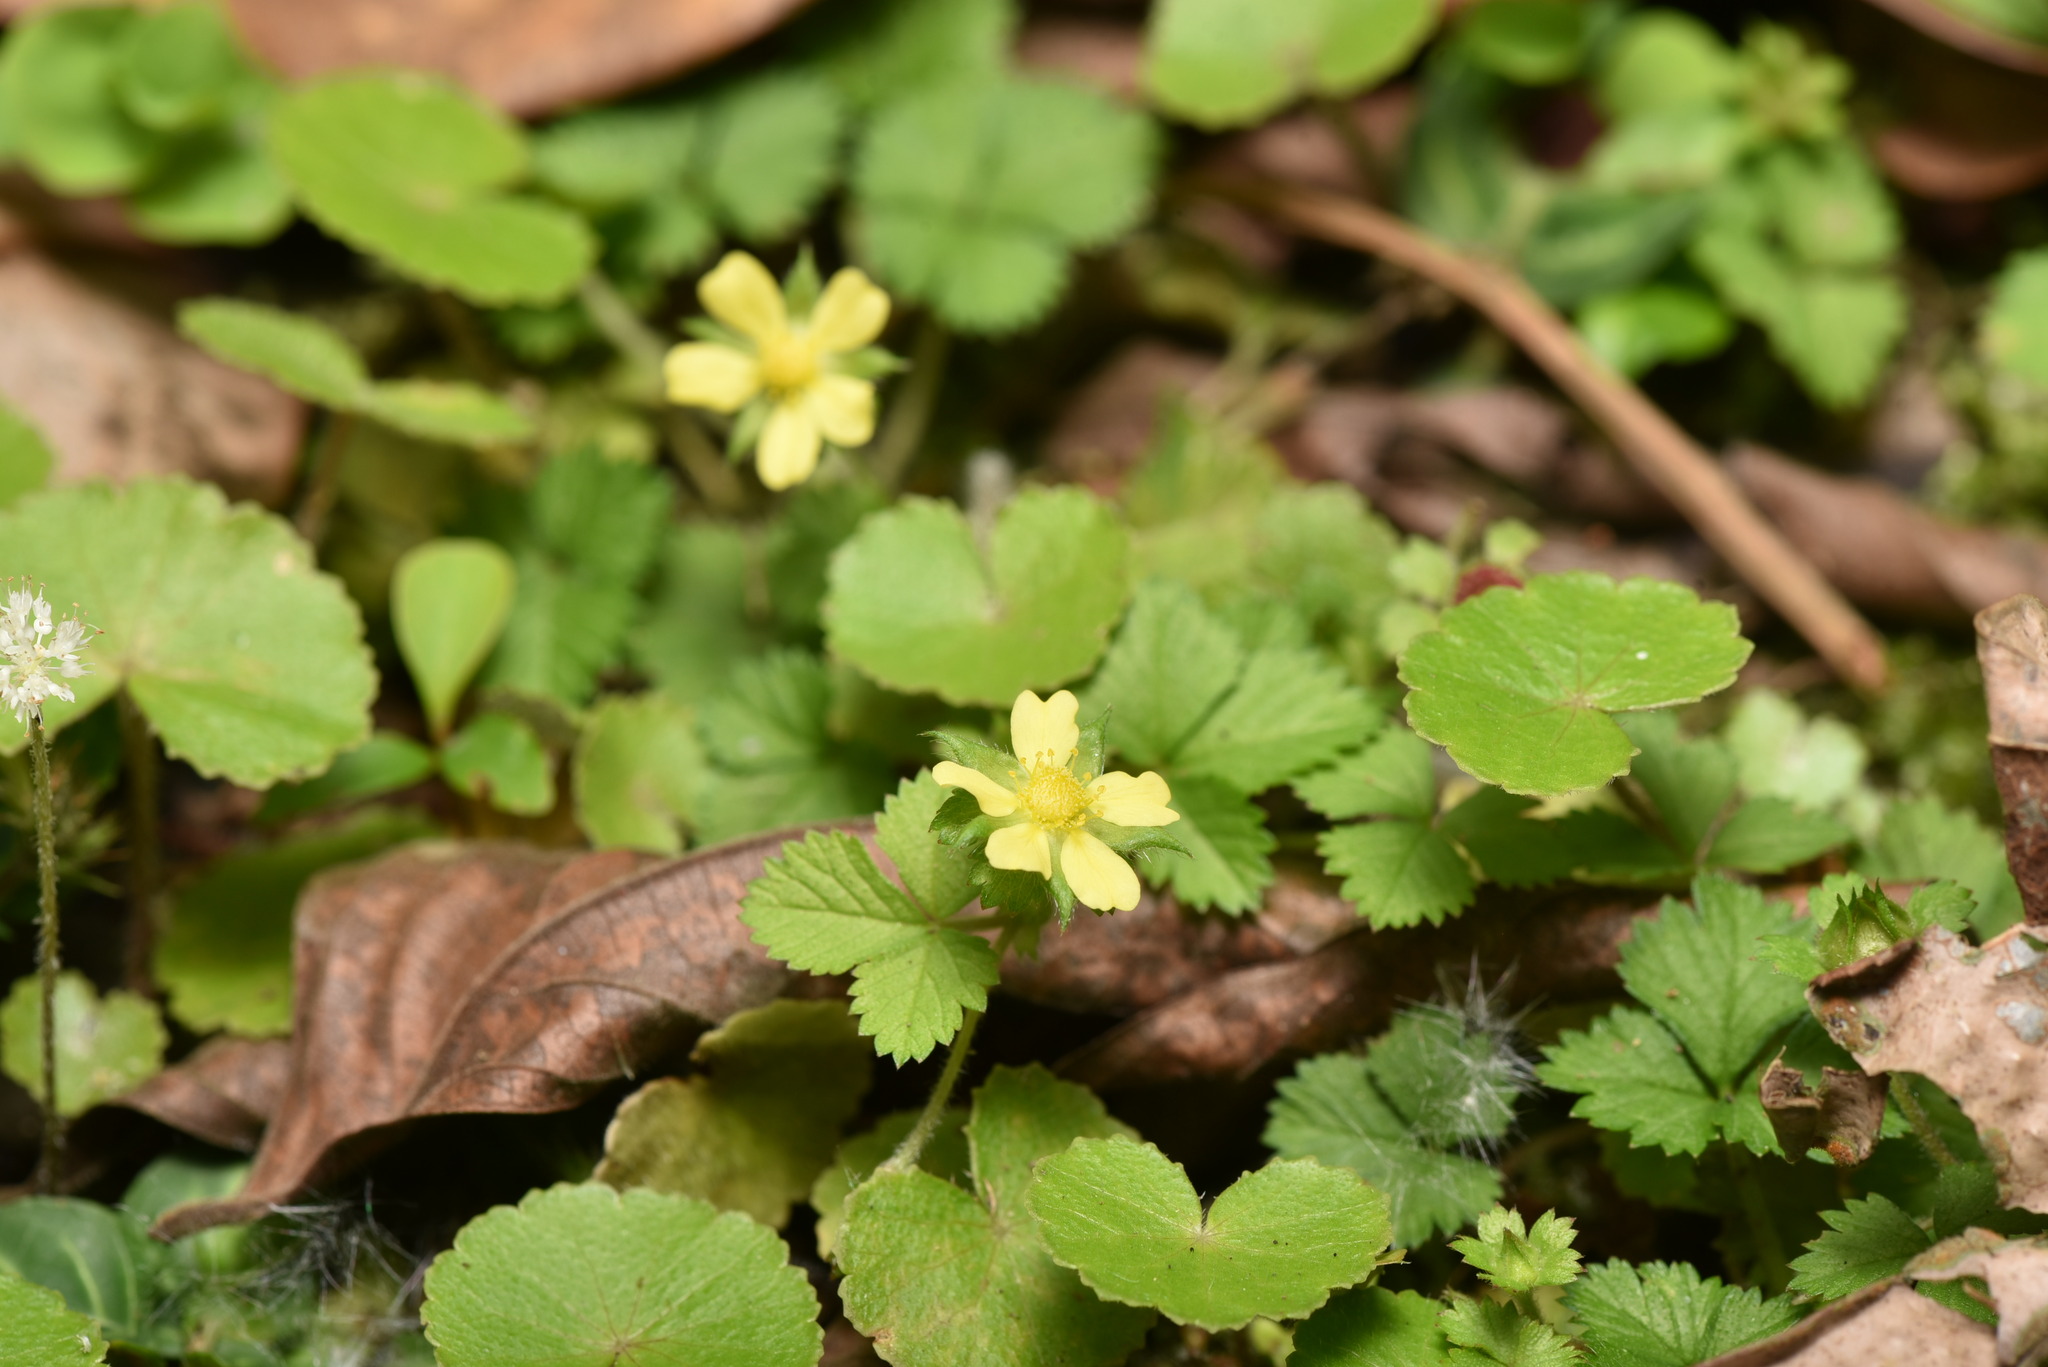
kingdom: Plantae
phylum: Tracheophyta
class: Magnoliopsida
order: Rosales
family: Rosaceae
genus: Potentilla
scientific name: Potentilla wallichiana
